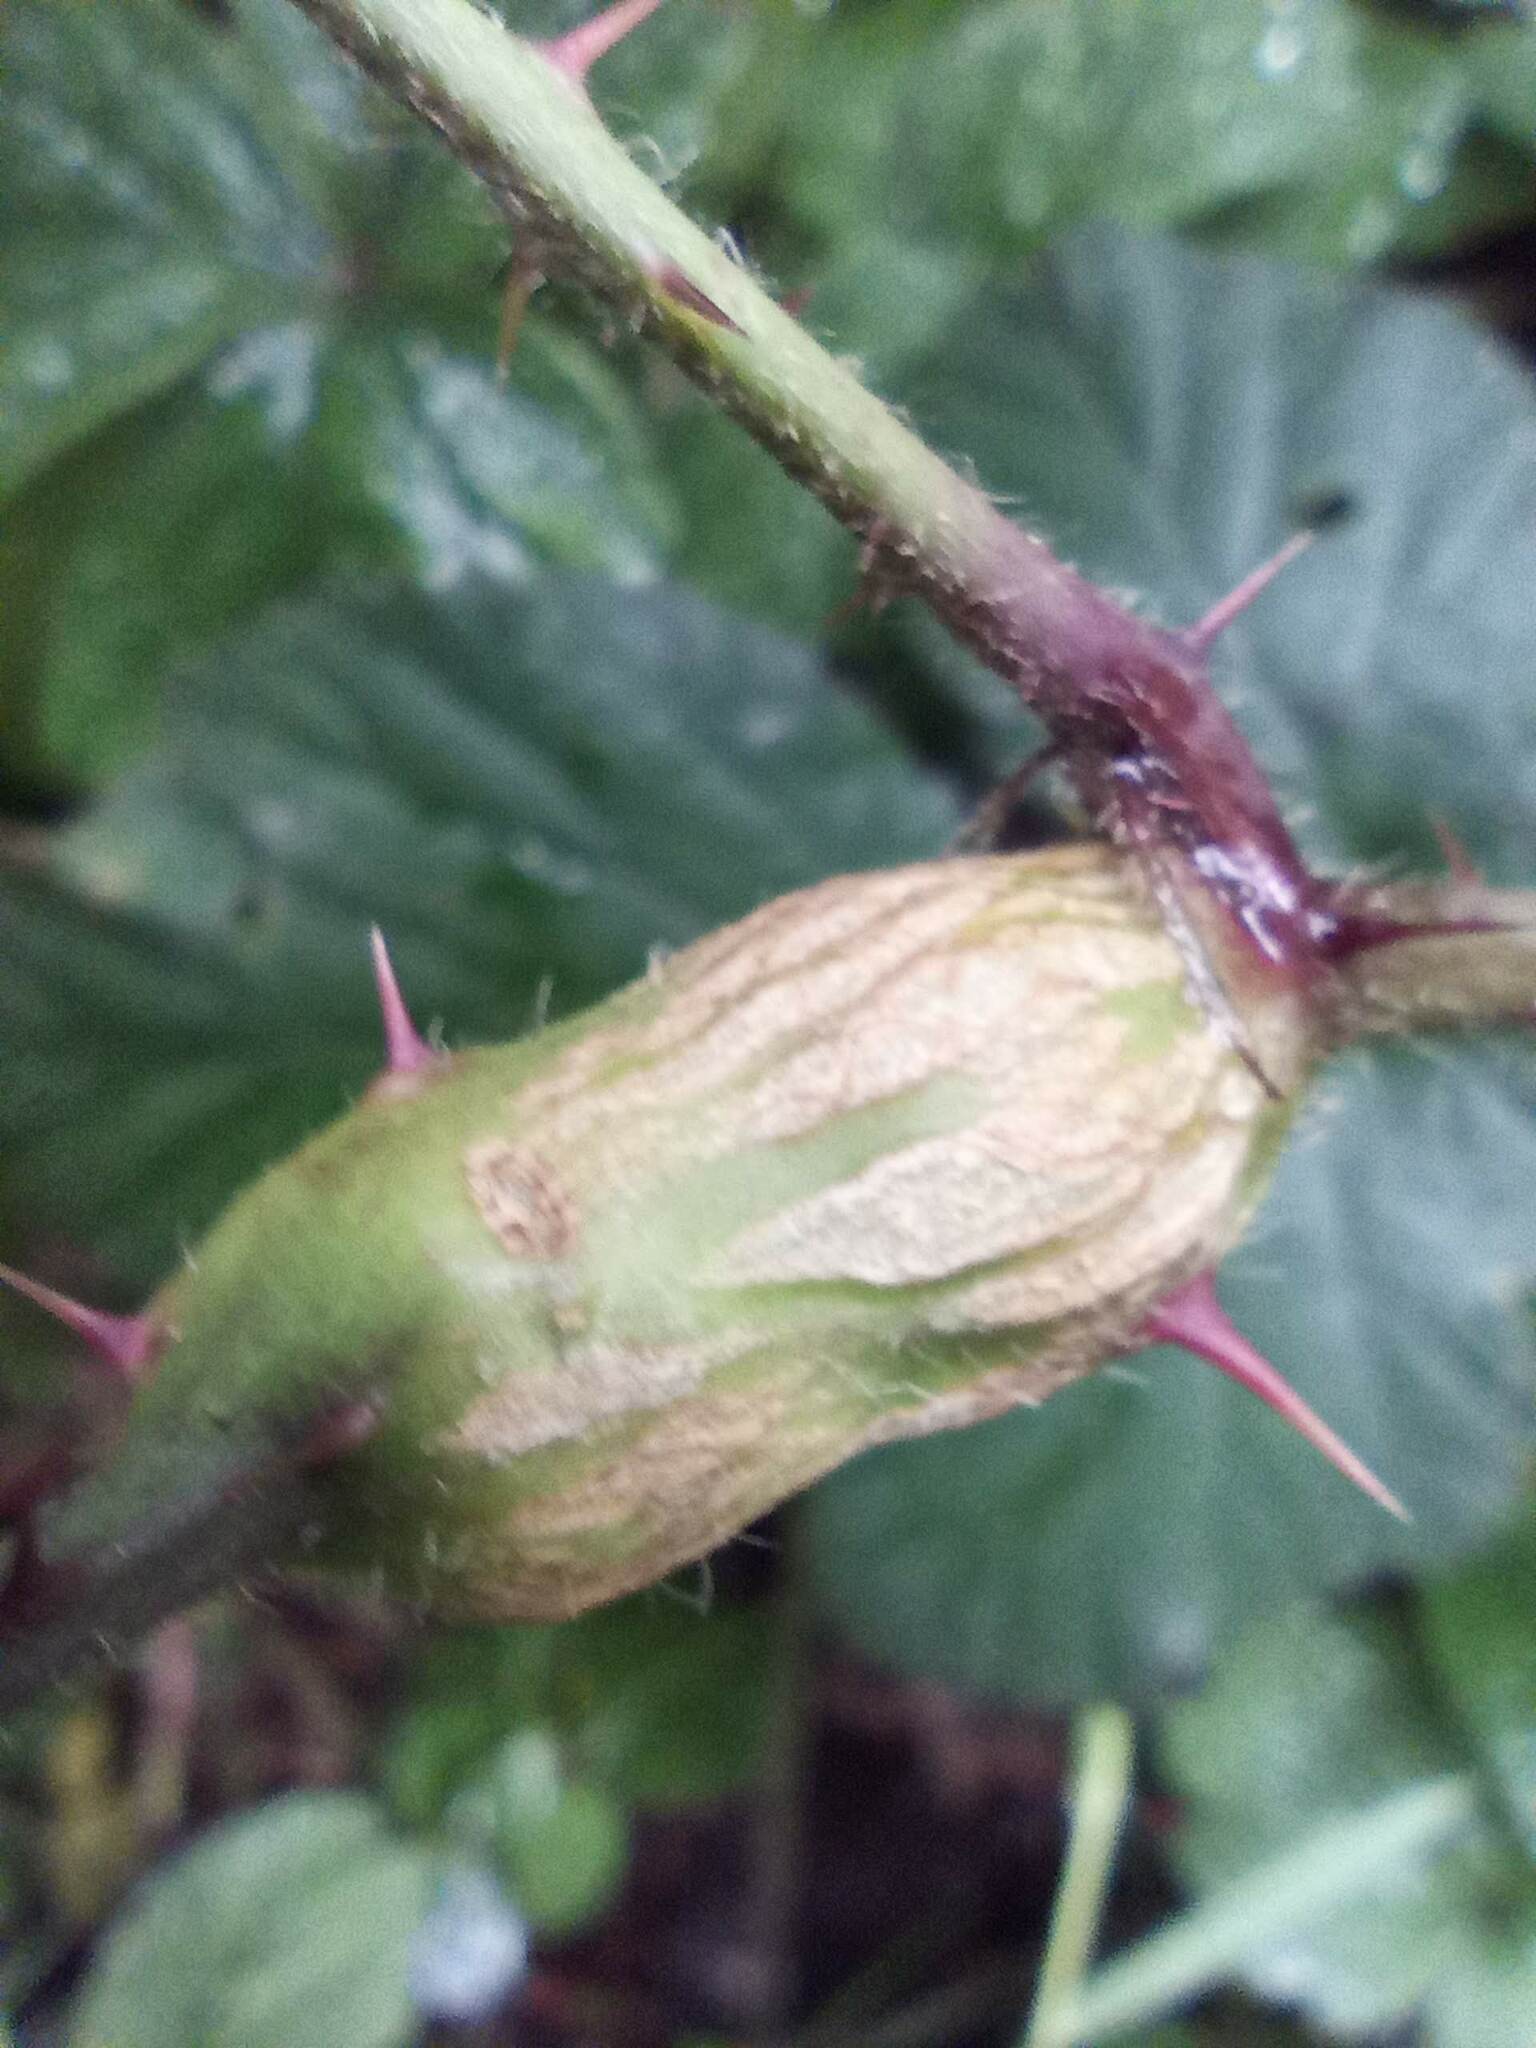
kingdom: Animalia
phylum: Arthropoda
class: Insecta
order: Diptera
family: Cecidomyiidae
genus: Lasioptera
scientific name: Lasioptera rubi
